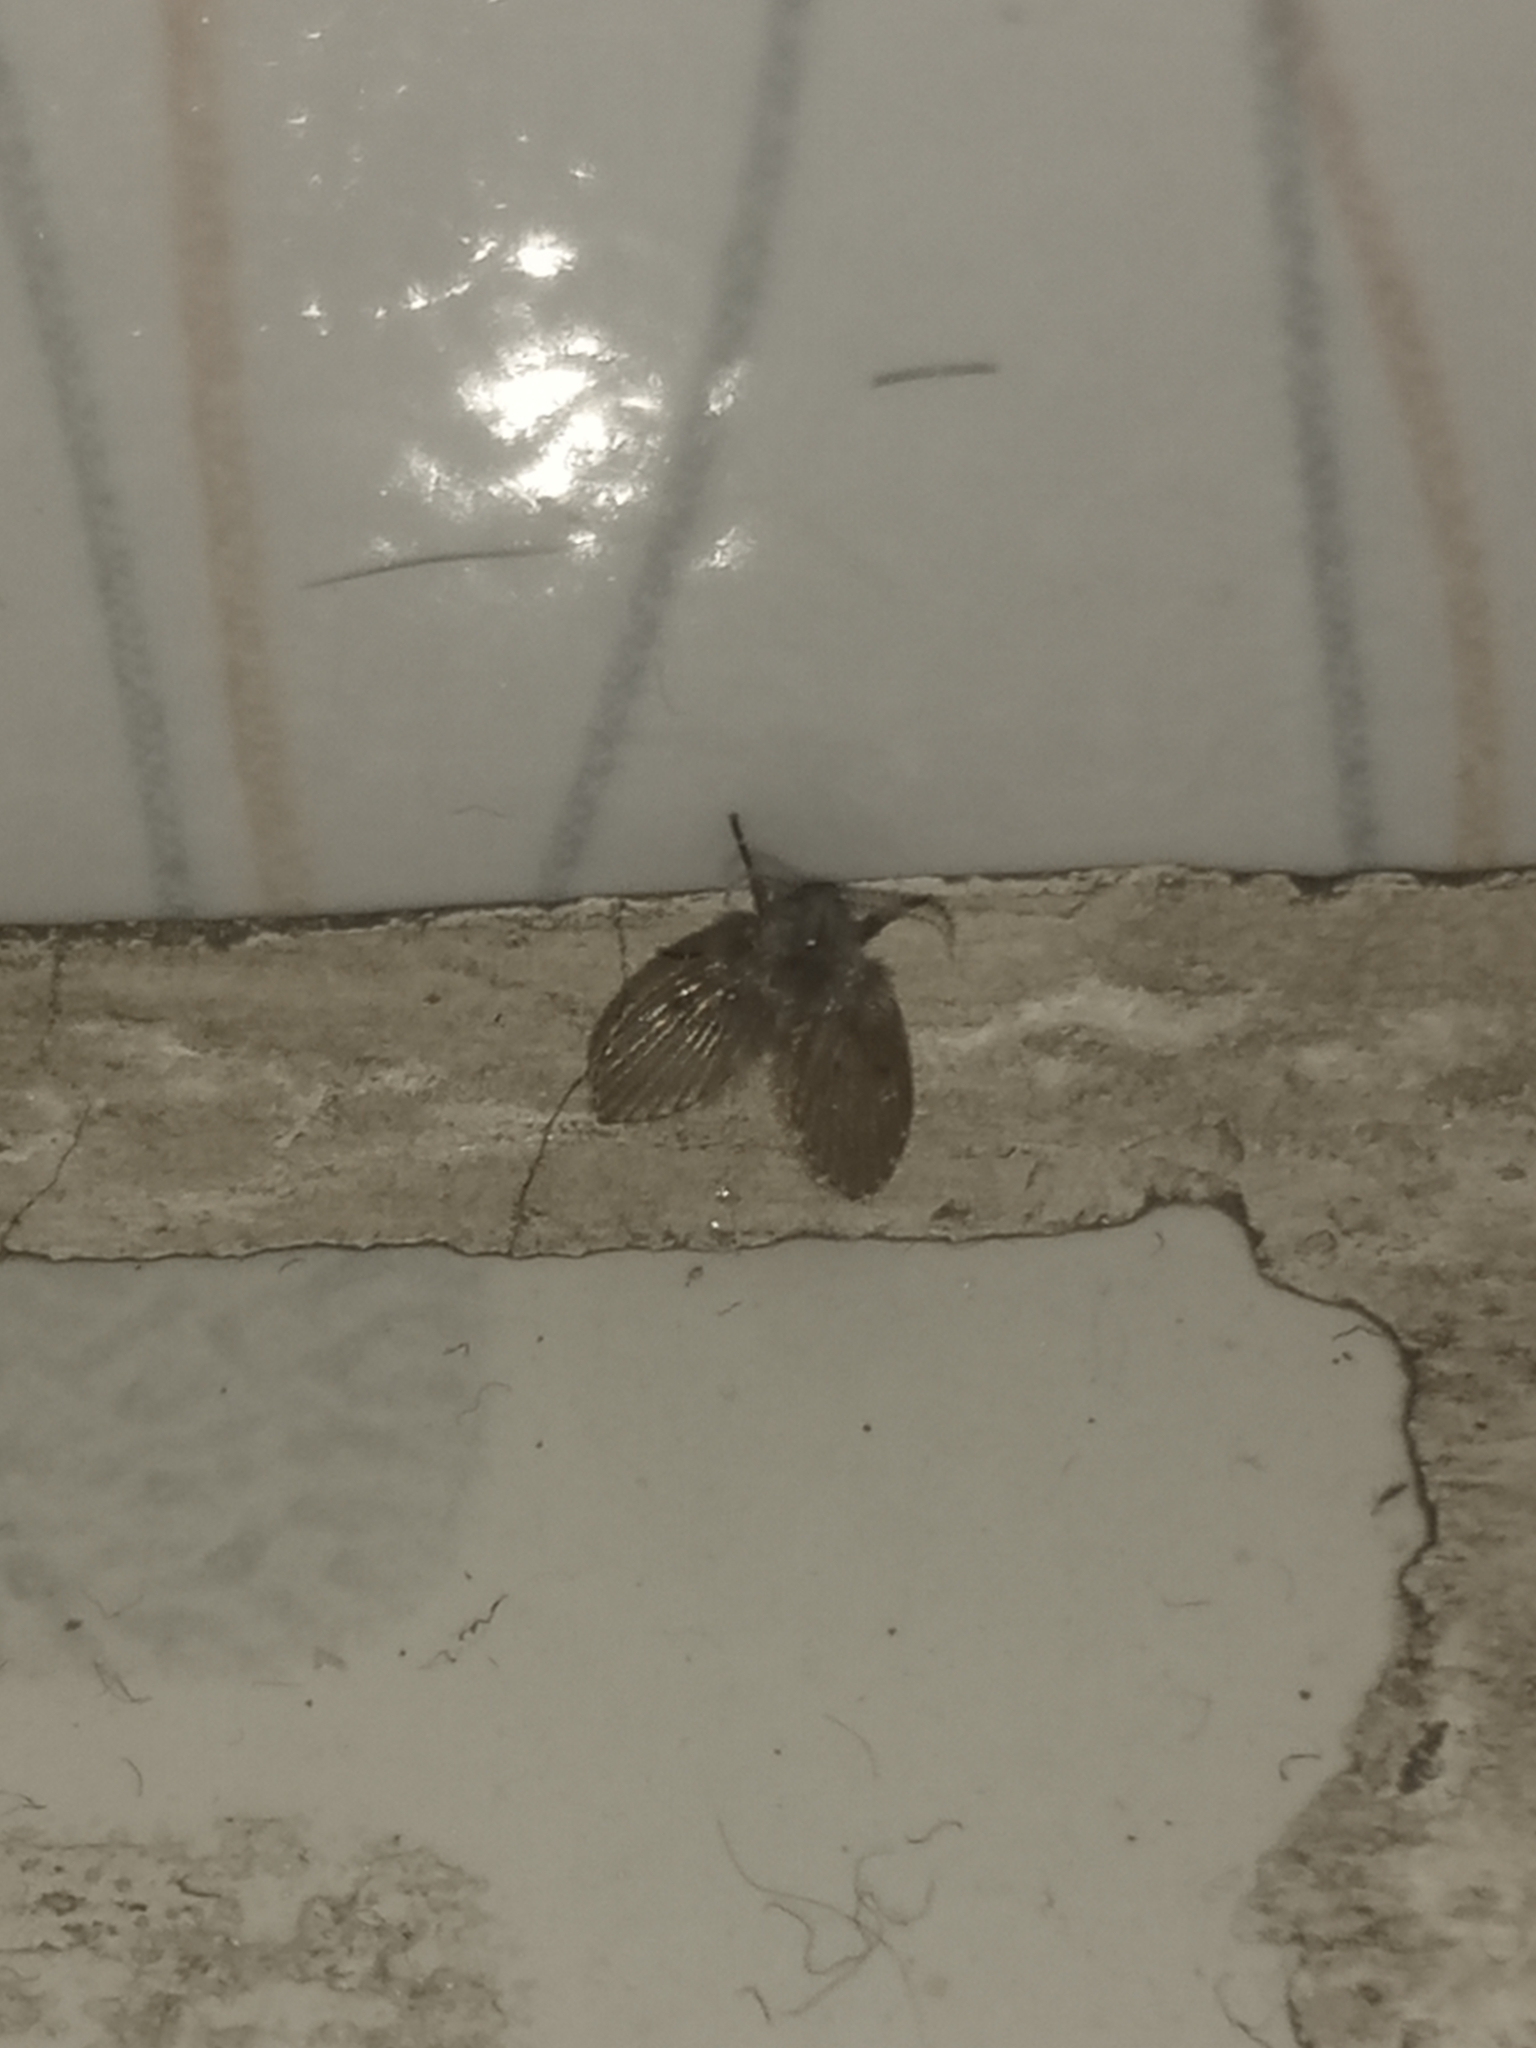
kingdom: Animalia
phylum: Arthropoda
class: Insecta
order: Diptera
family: Psychodidae
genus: Clogmia
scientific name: Clogmia albipunctatus
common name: White-spotted moth fly
